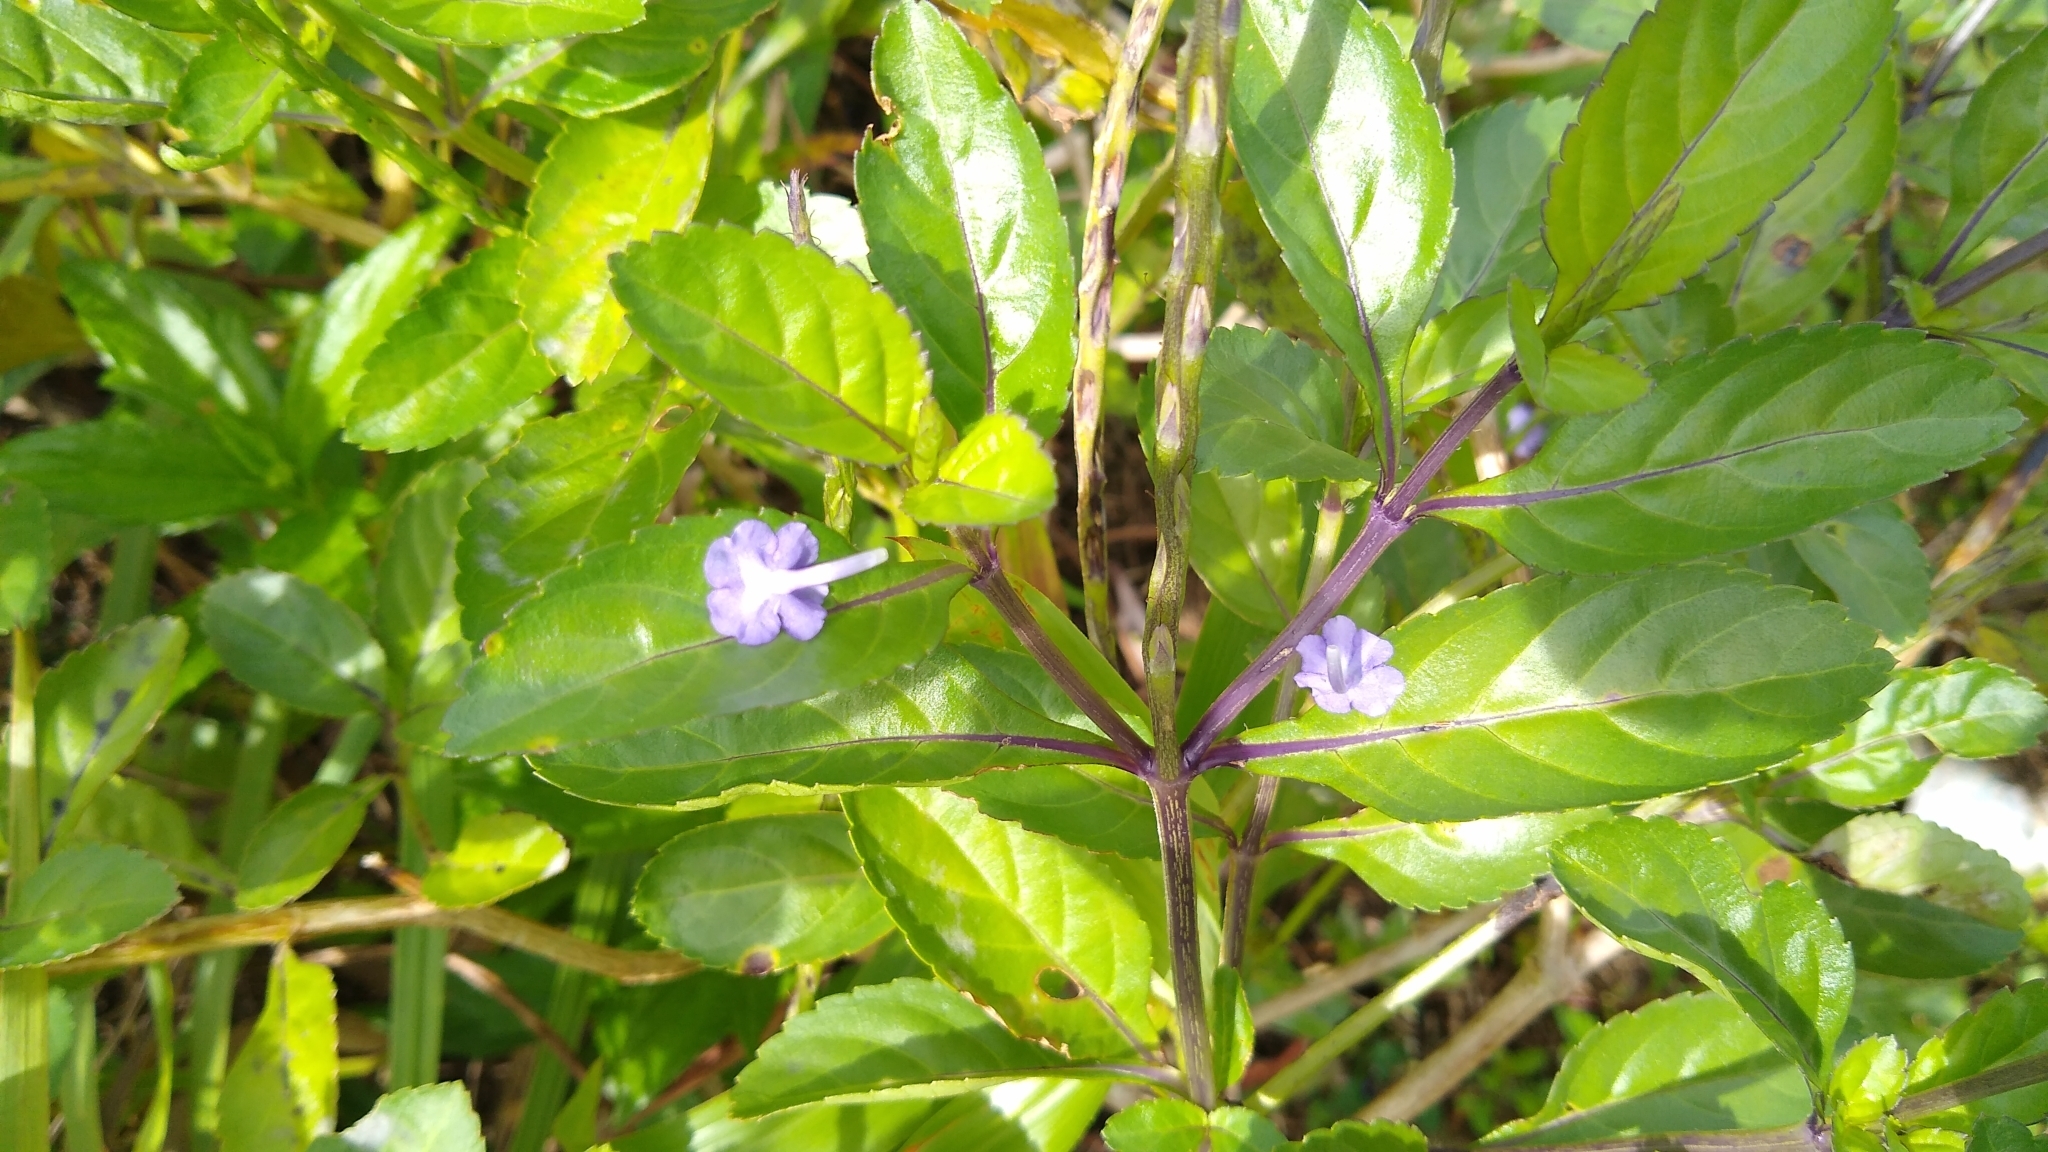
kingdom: Plantae
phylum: Tracheophyta
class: Magnoliopsida
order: Lamiales
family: Verbenaceae
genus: Stachytarpheta
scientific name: Stachytarpheta jamaicensis
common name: Light-blue snakeweed
